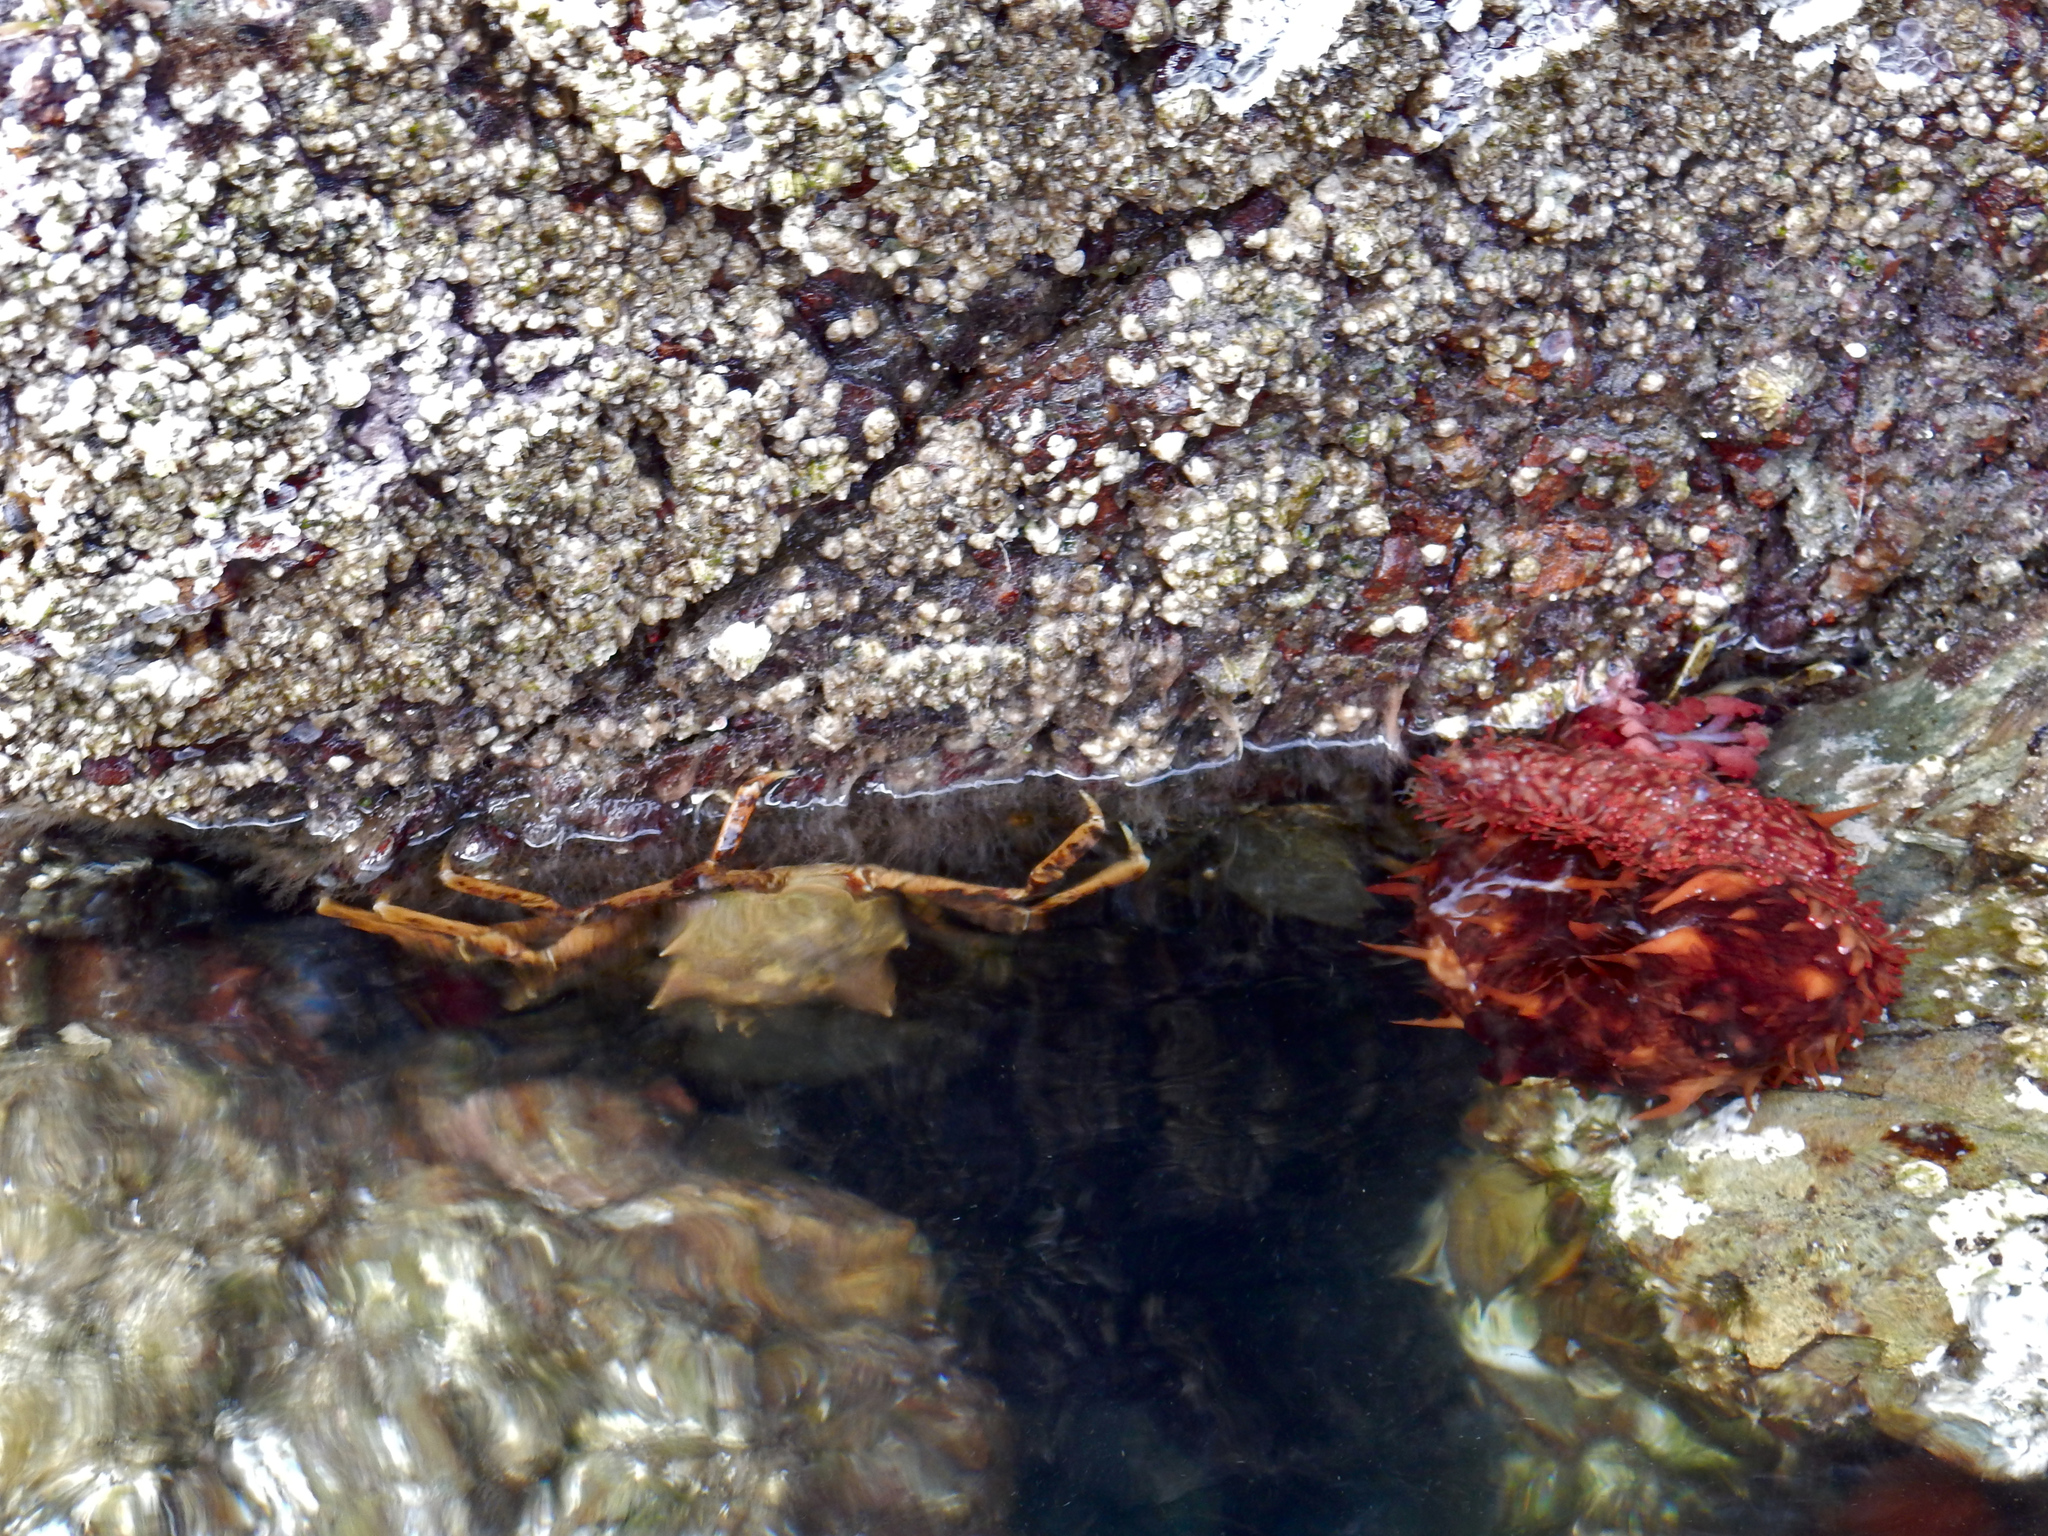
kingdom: Animalia
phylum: Arthropoda
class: Malacostraca
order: Decapoda
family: Epialtidae
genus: Pugettia
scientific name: Pugettia producta
